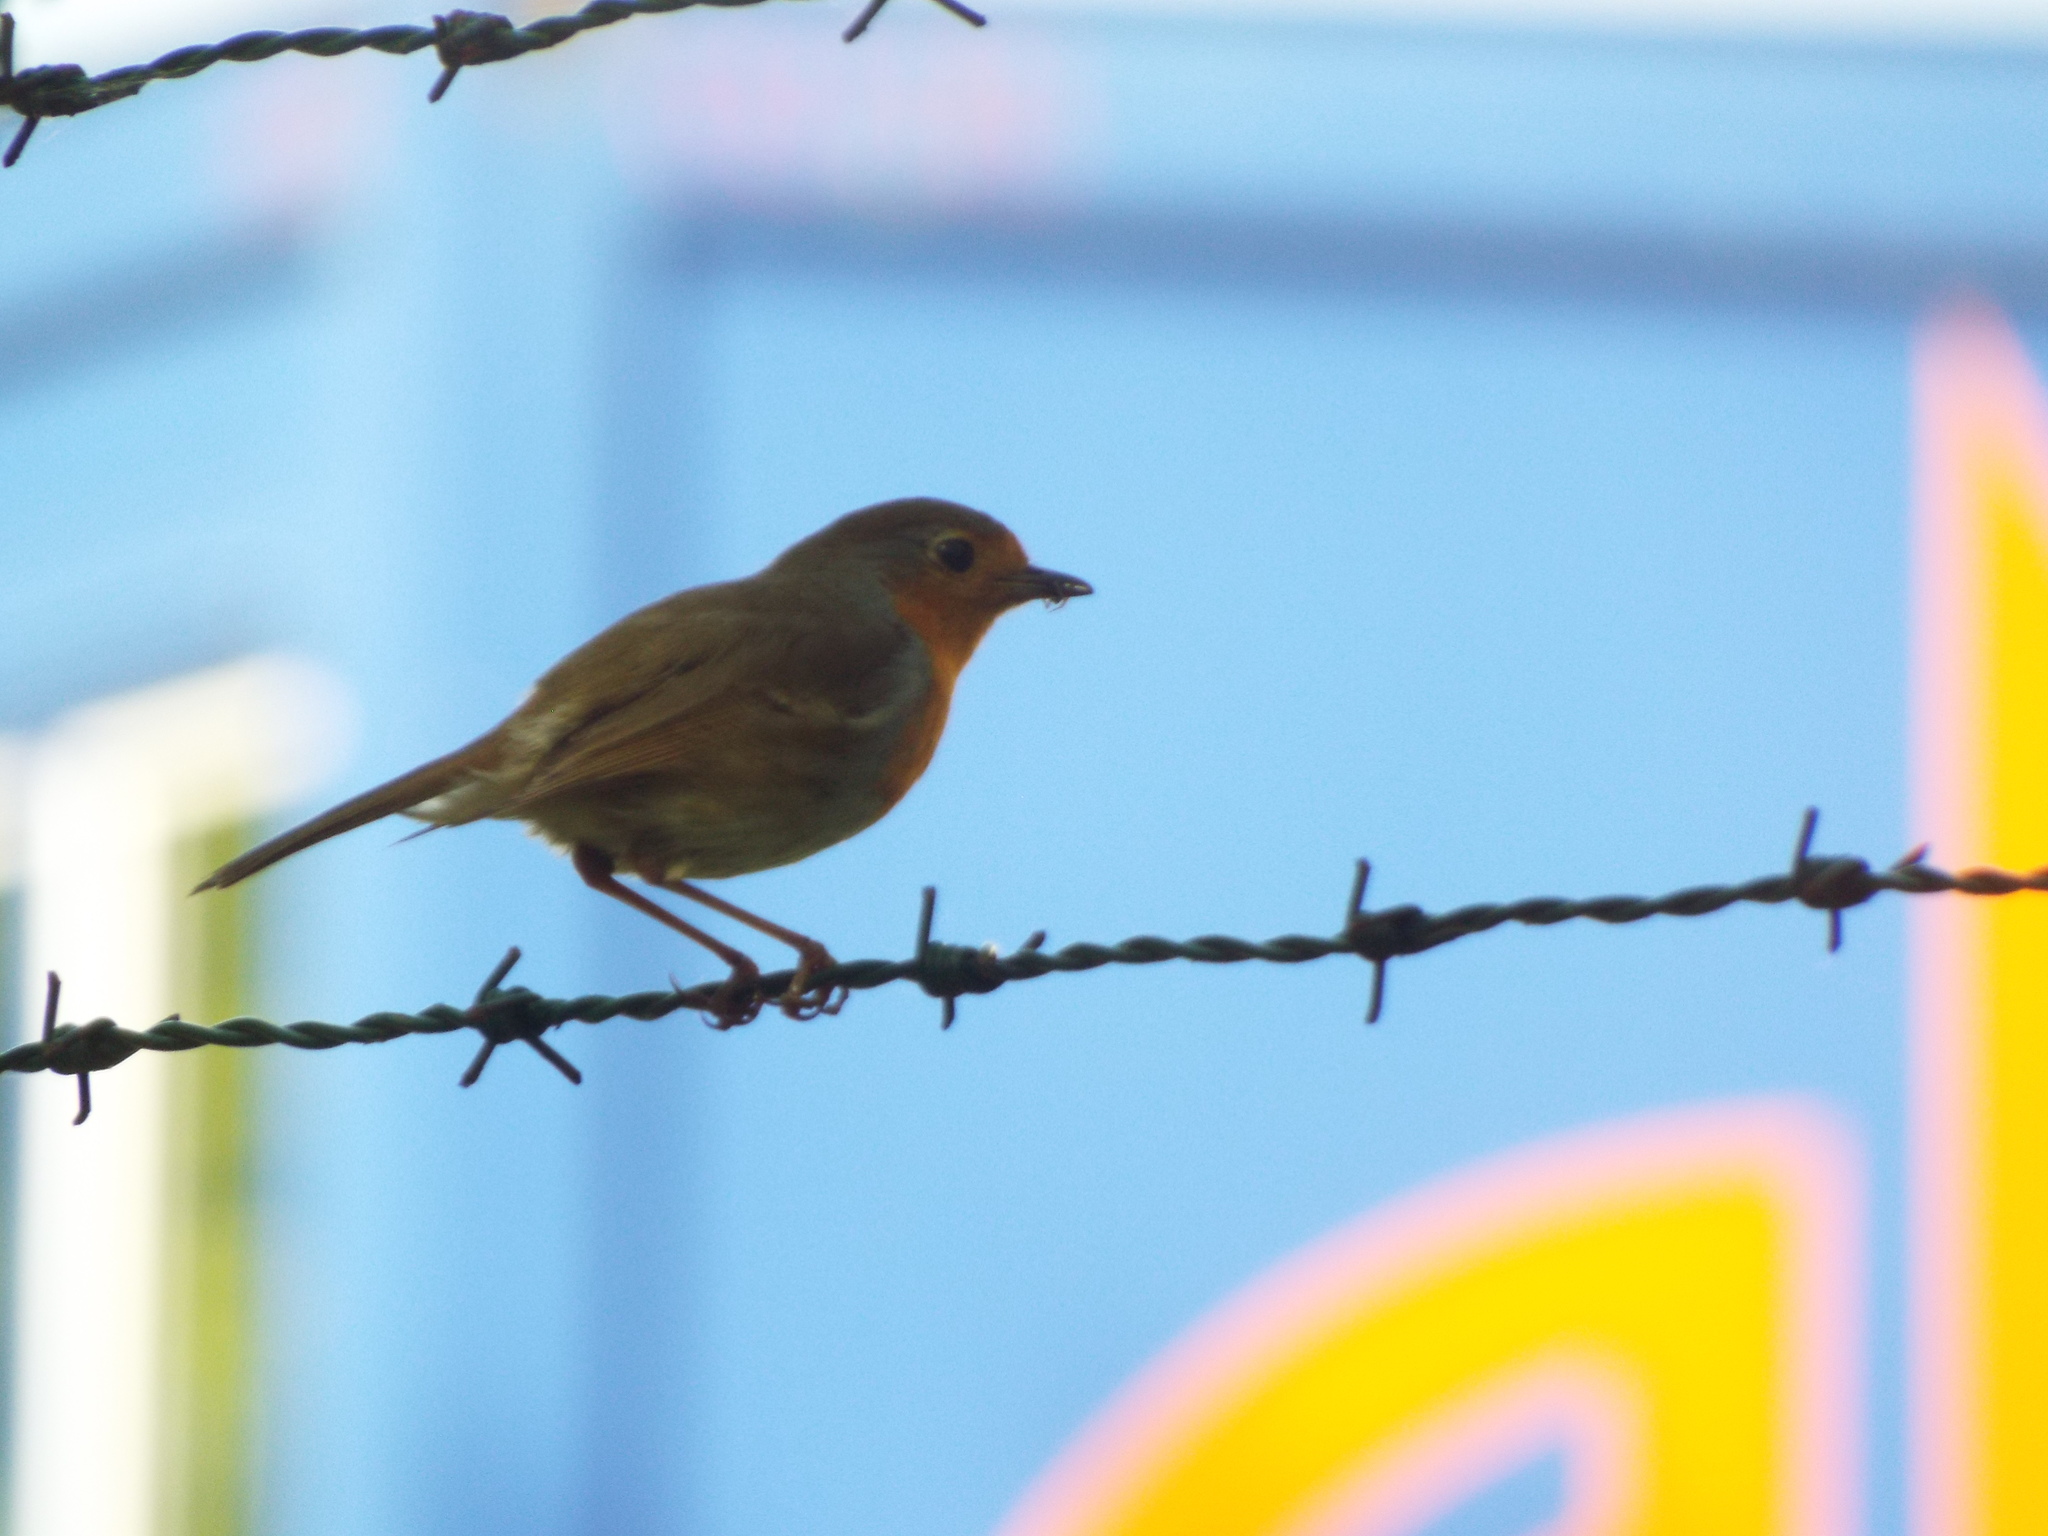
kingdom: Animalia
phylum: Chordata
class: Aves
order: Passeriformes
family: Muscicapidae
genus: Erithacus
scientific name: Erithacus rubecula
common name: European robin
